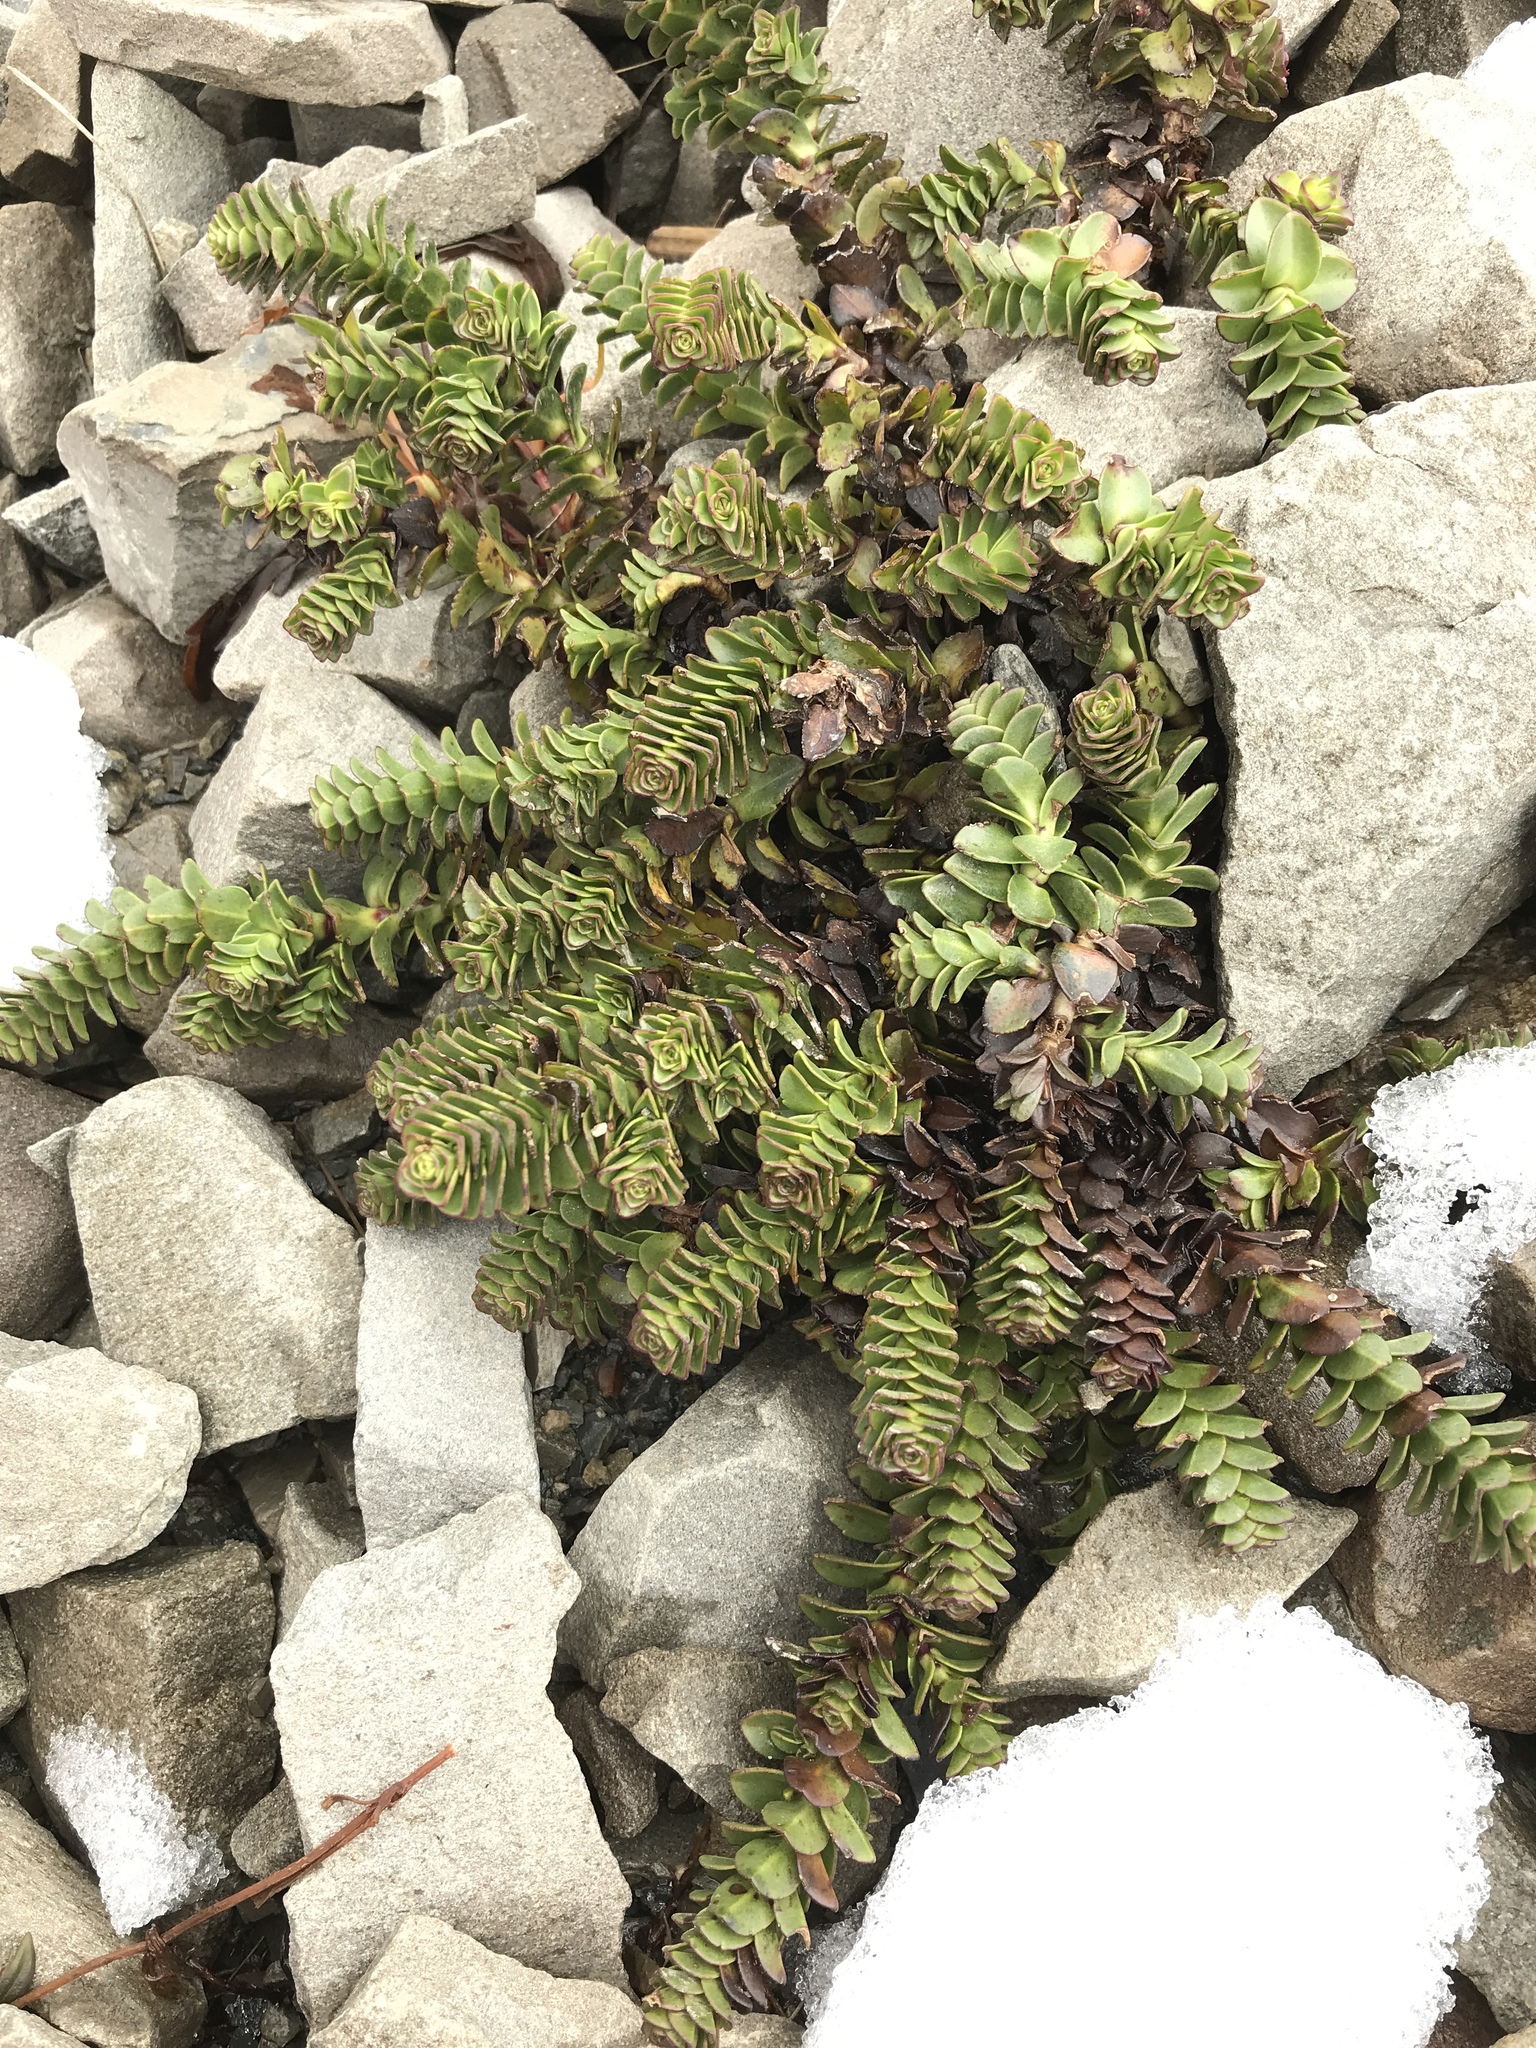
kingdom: Plantae
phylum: Tracheophyta
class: Magnoliopsida
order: Lamiales
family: Plantaginaceae
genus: Veronica
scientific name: Veronica haastii
